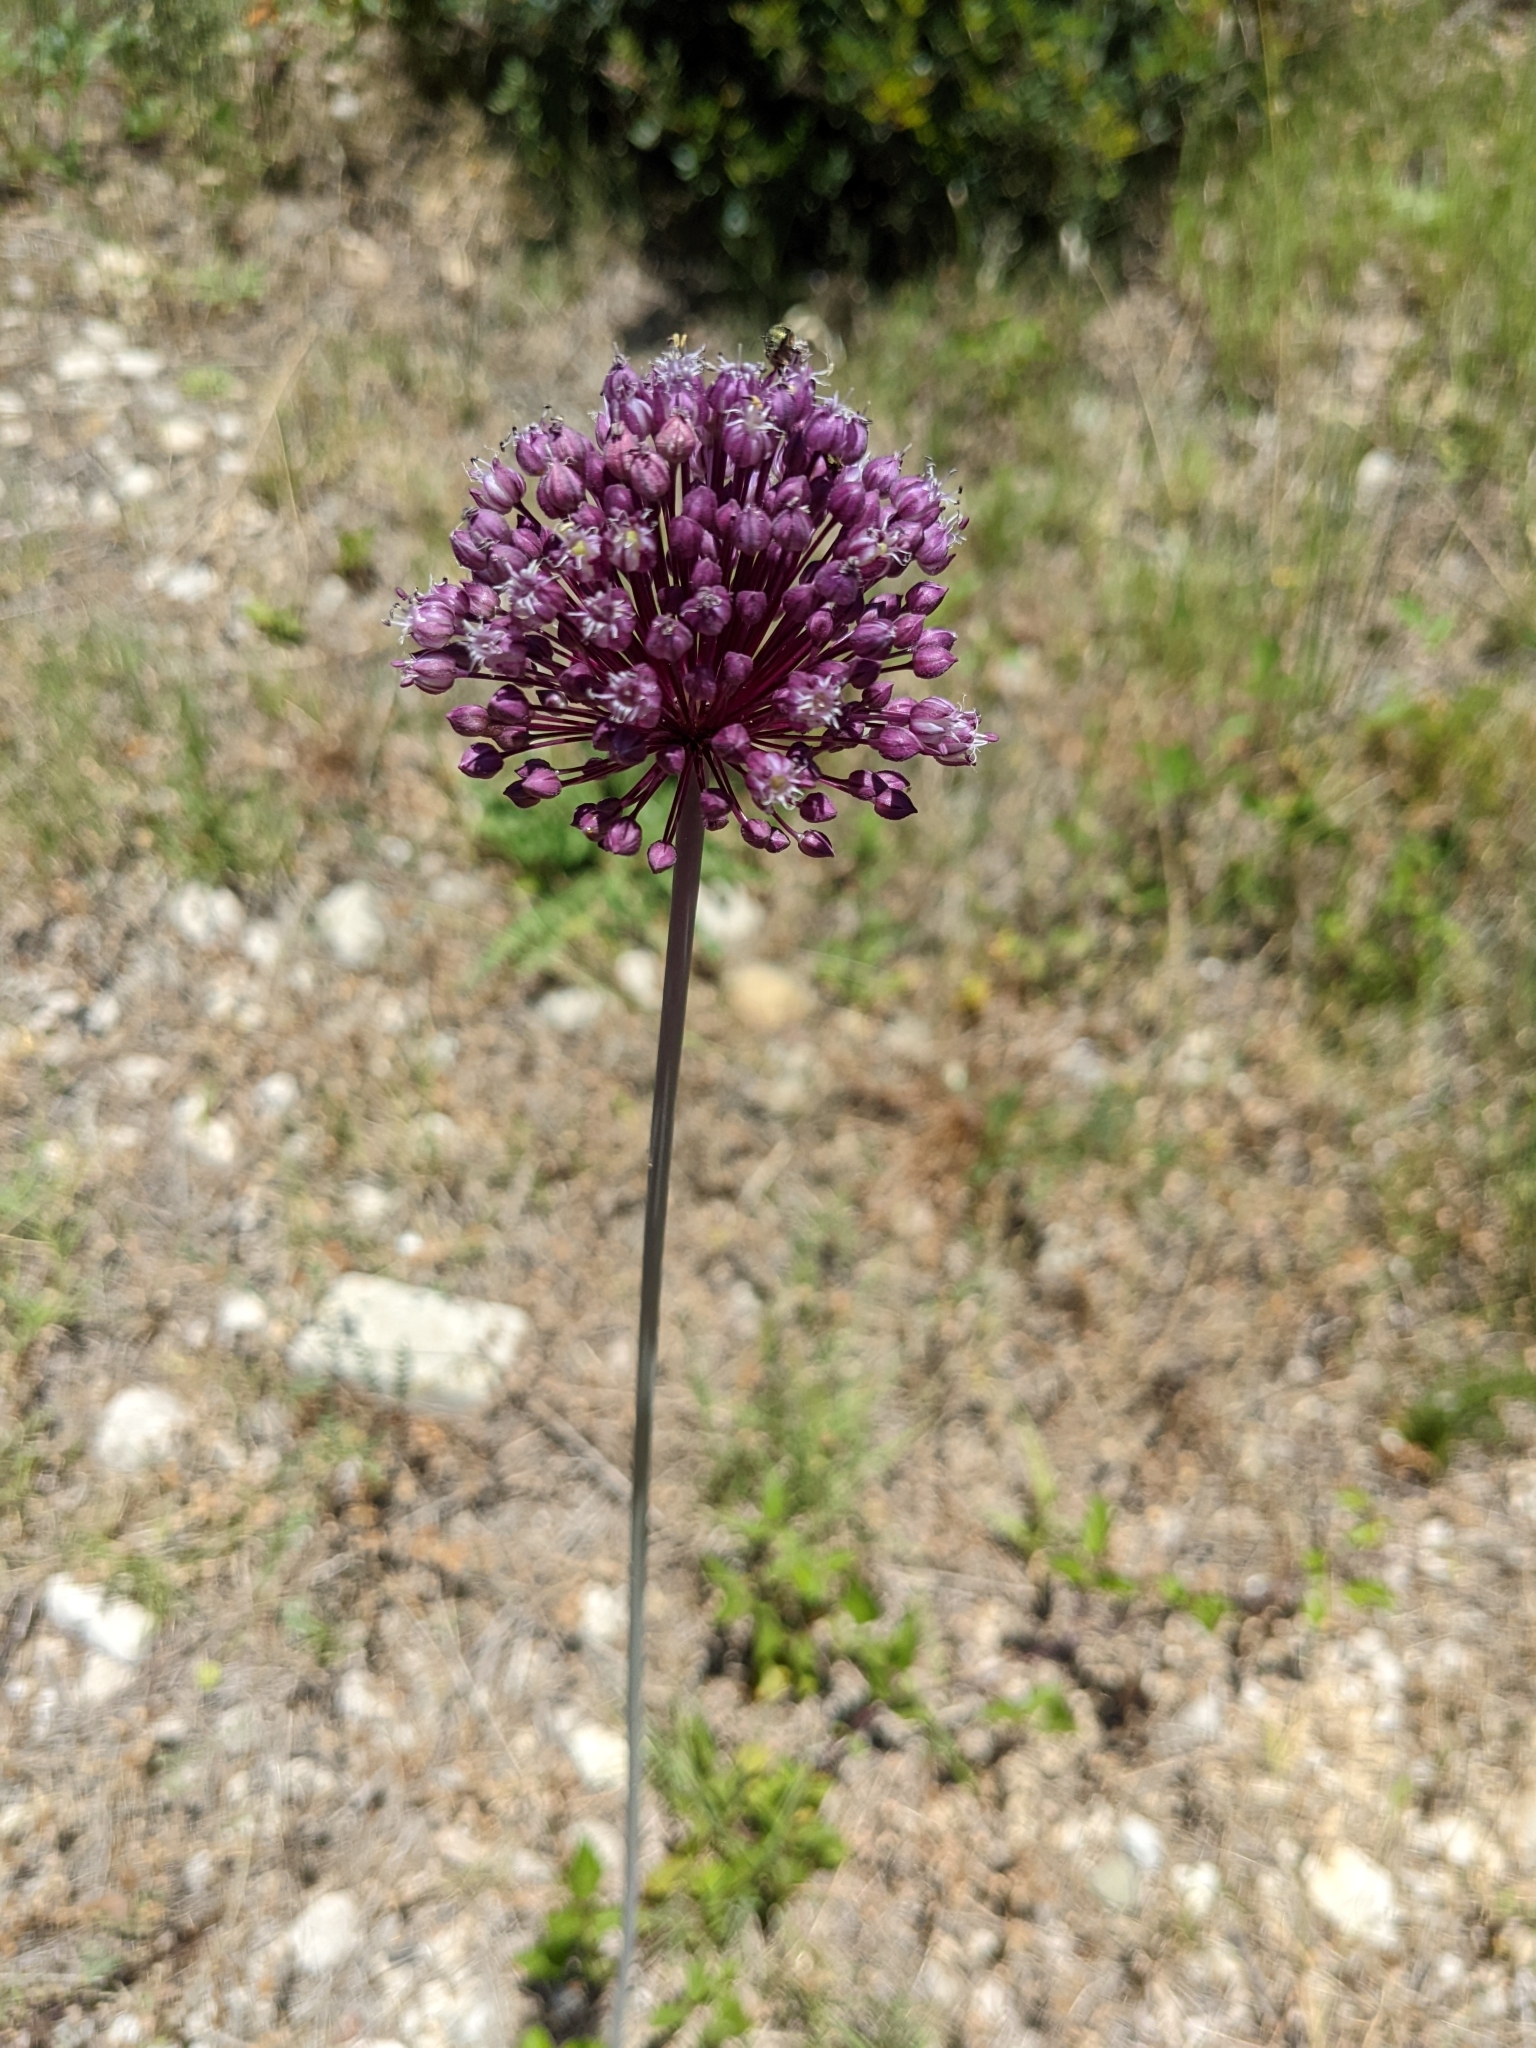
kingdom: Plantae
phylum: Tracheophyta
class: Liliopsida
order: Asparagales
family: Amaryllidaceae
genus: Allium
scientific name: Allium ampeloprasum
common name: Wild leek
